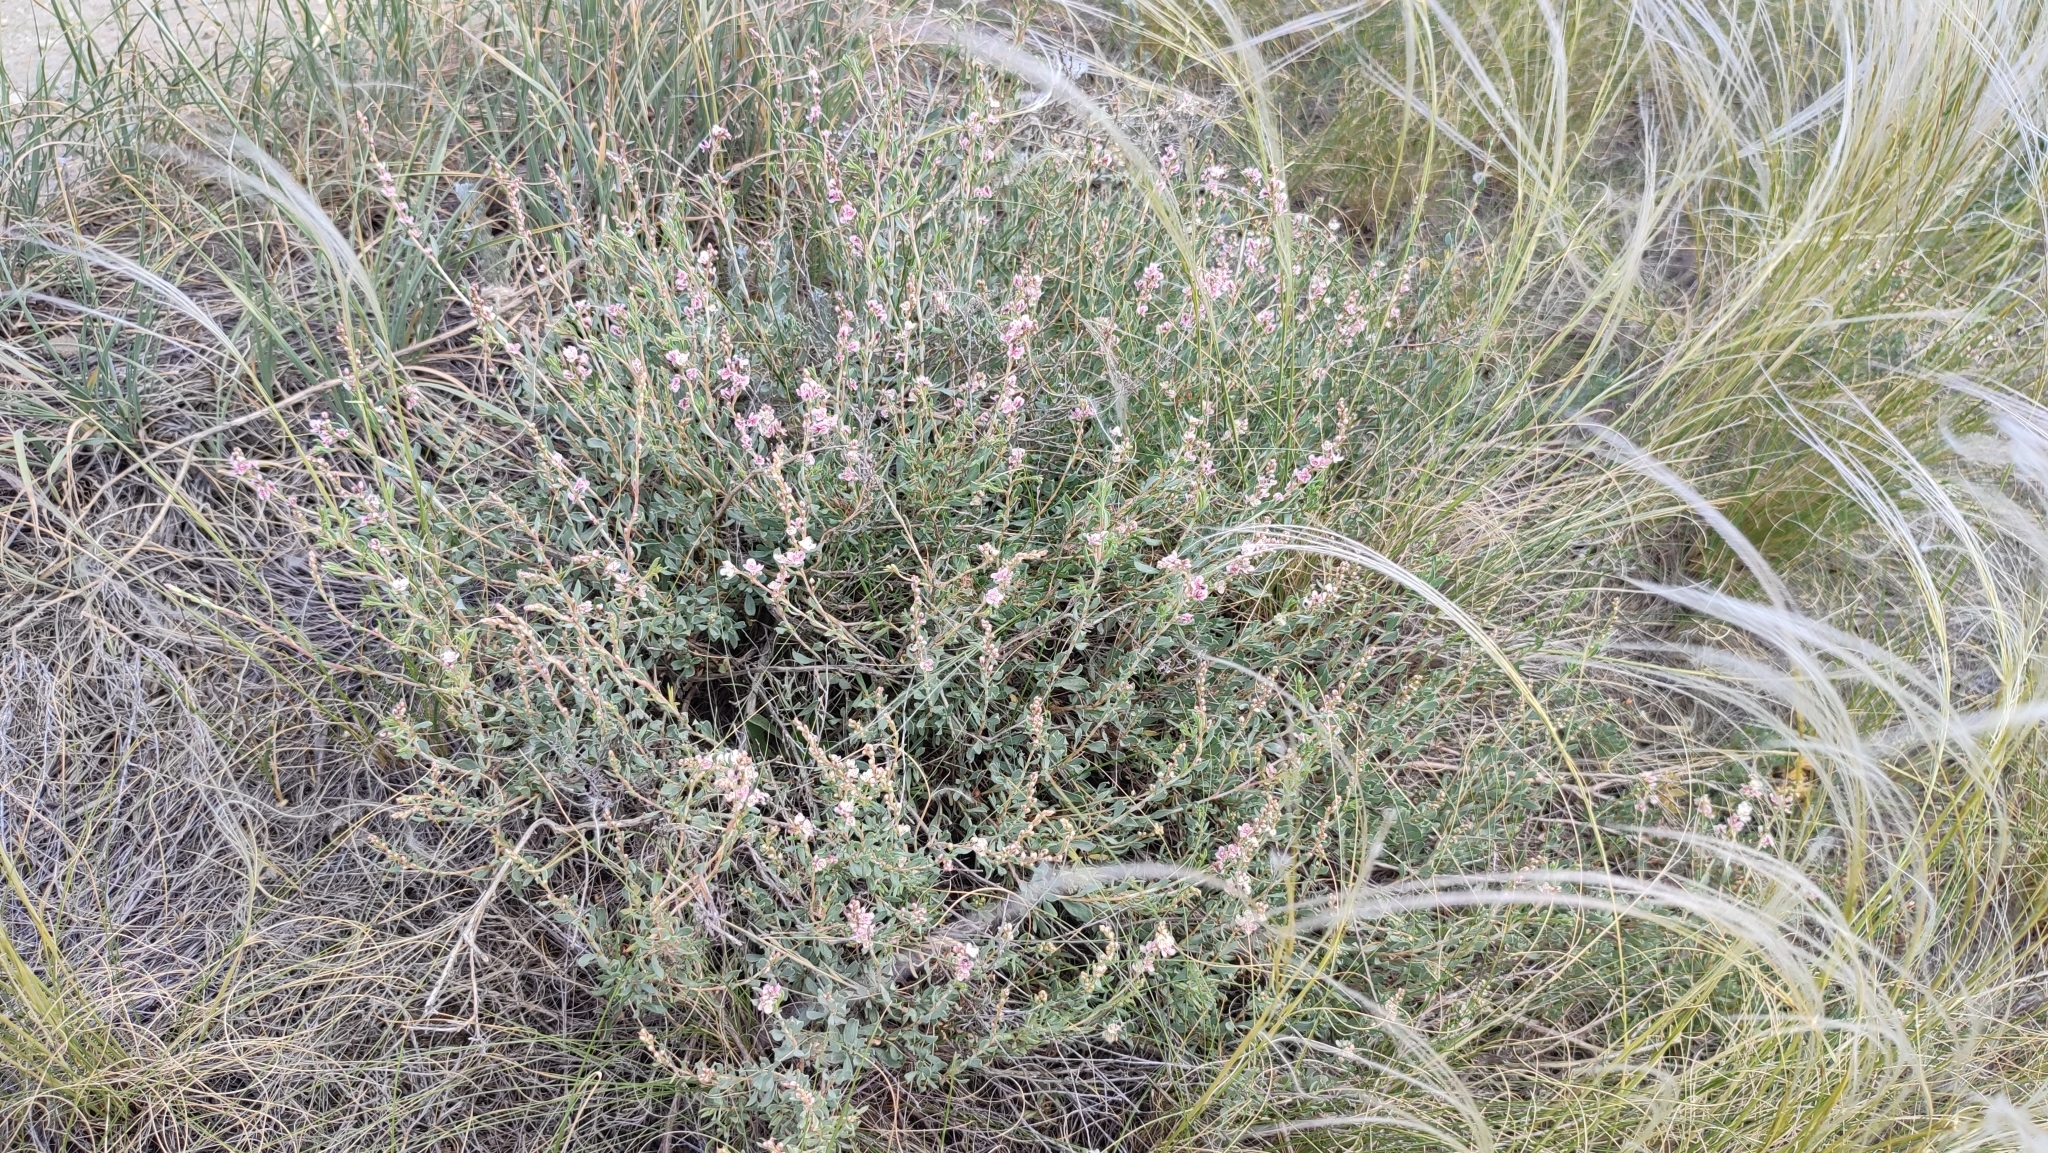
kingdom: Plantae
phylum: Tracheophyta
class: Magnoliopsida
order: Caryophyllales
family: Polygonaceae
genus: Atraphaxis
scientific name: Atraphaxis frutescens
